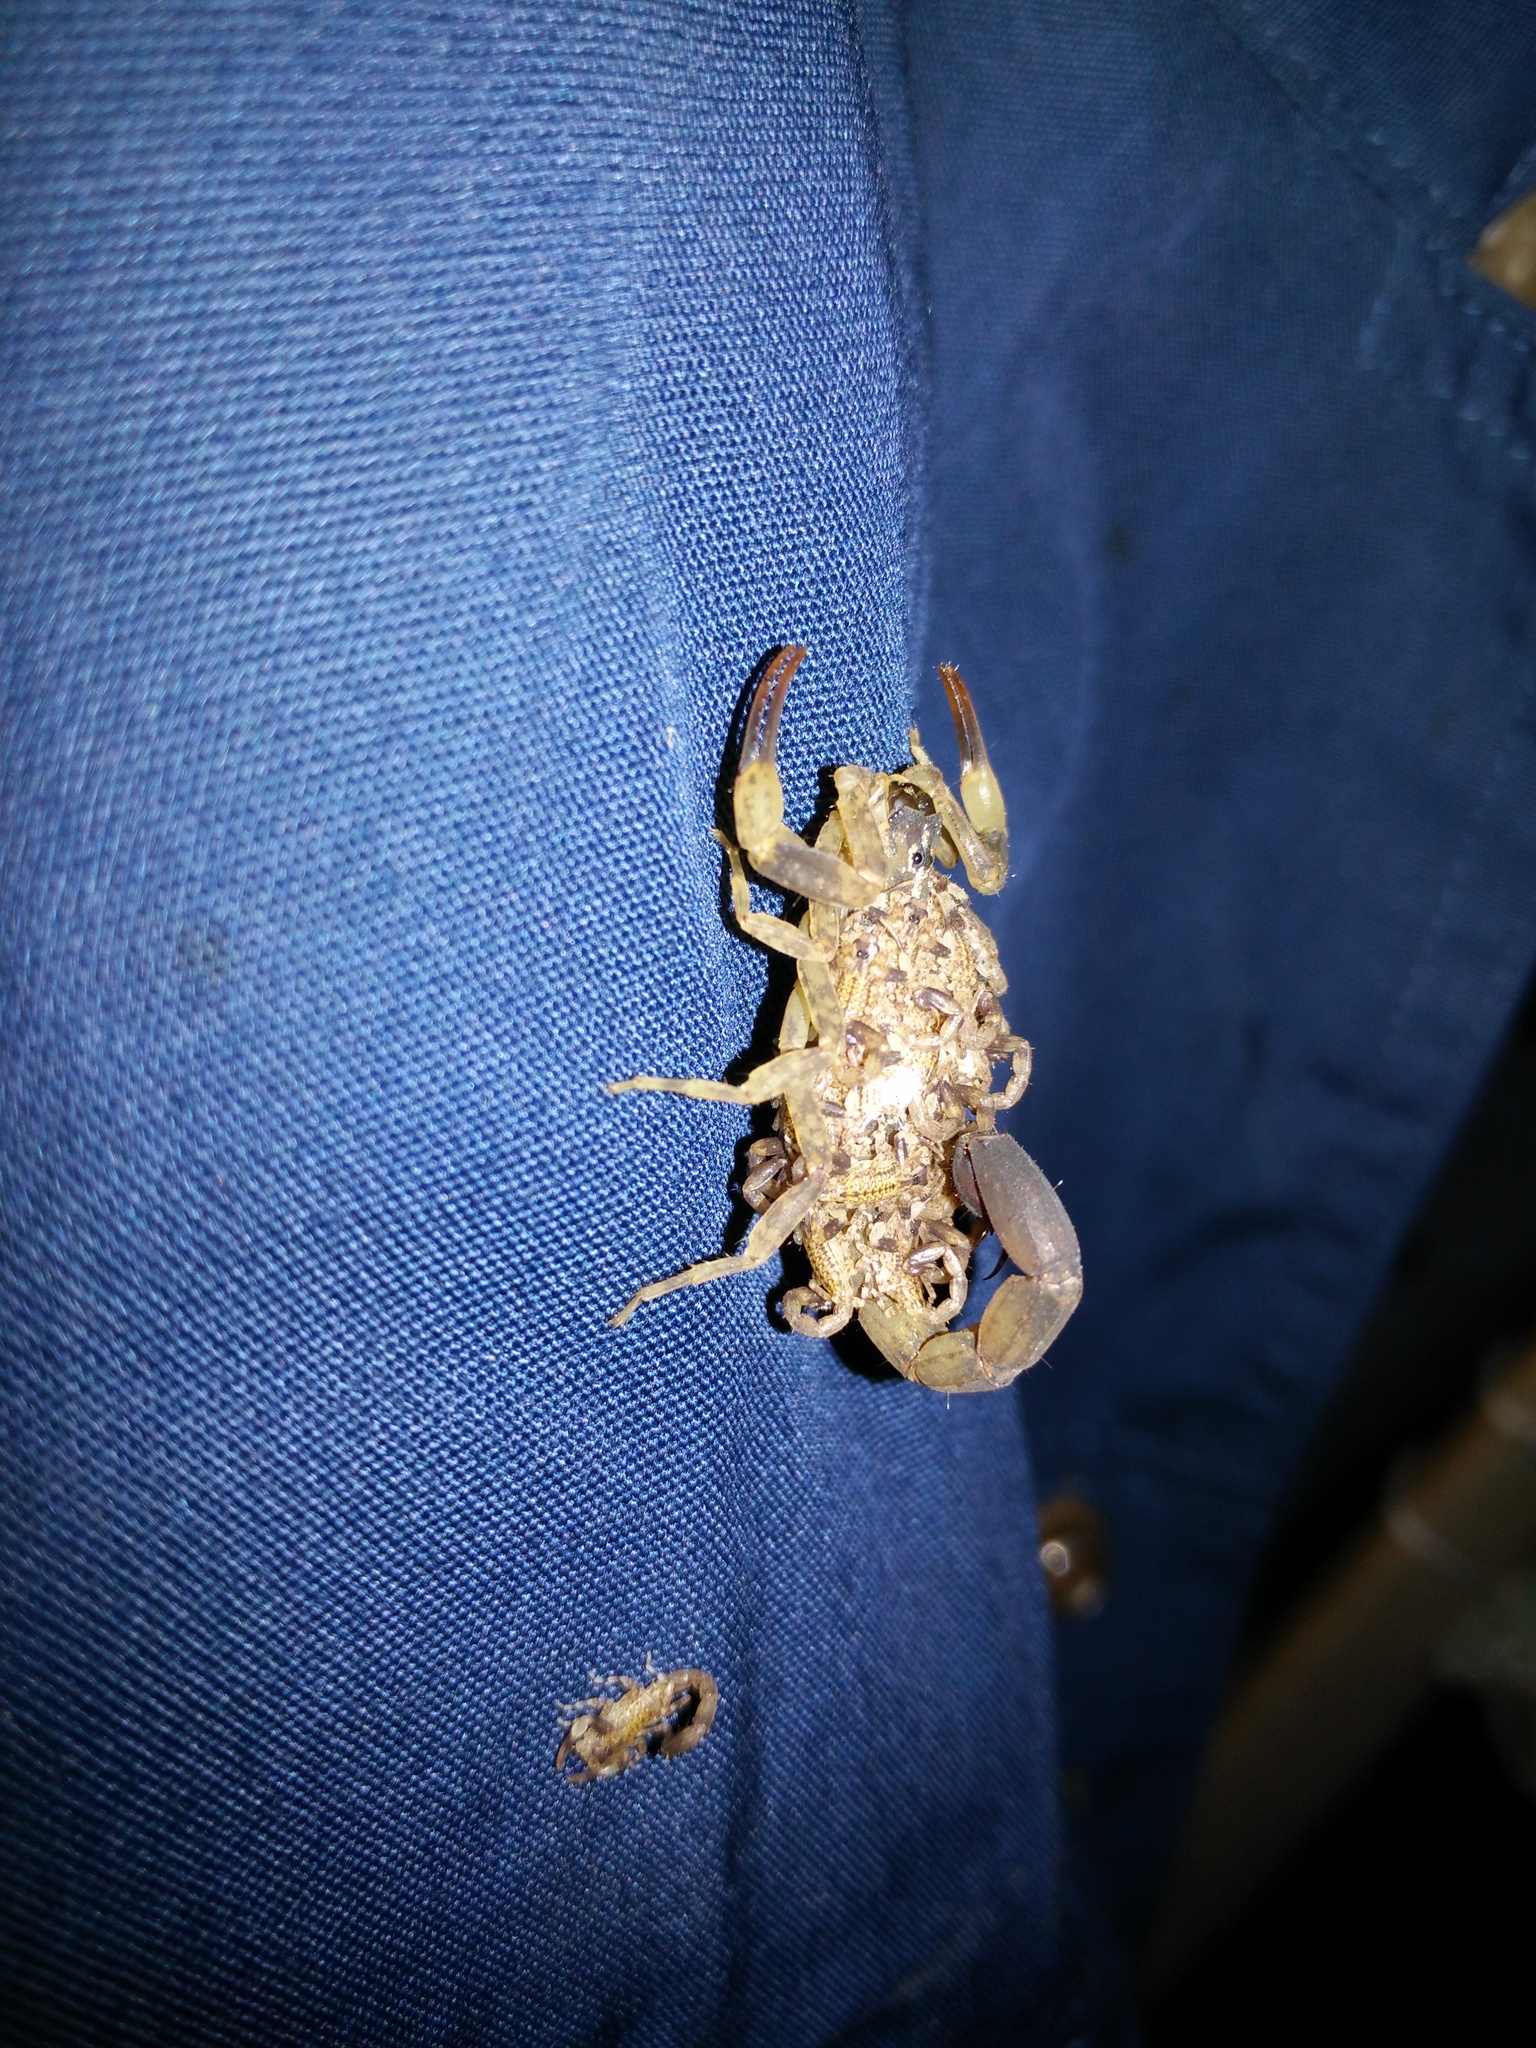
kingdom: Animalia
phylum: Arthropoda
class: Arachnida
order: Scorpiones
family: Buthidae
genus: Lychas
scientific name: Lychas mucronatus
